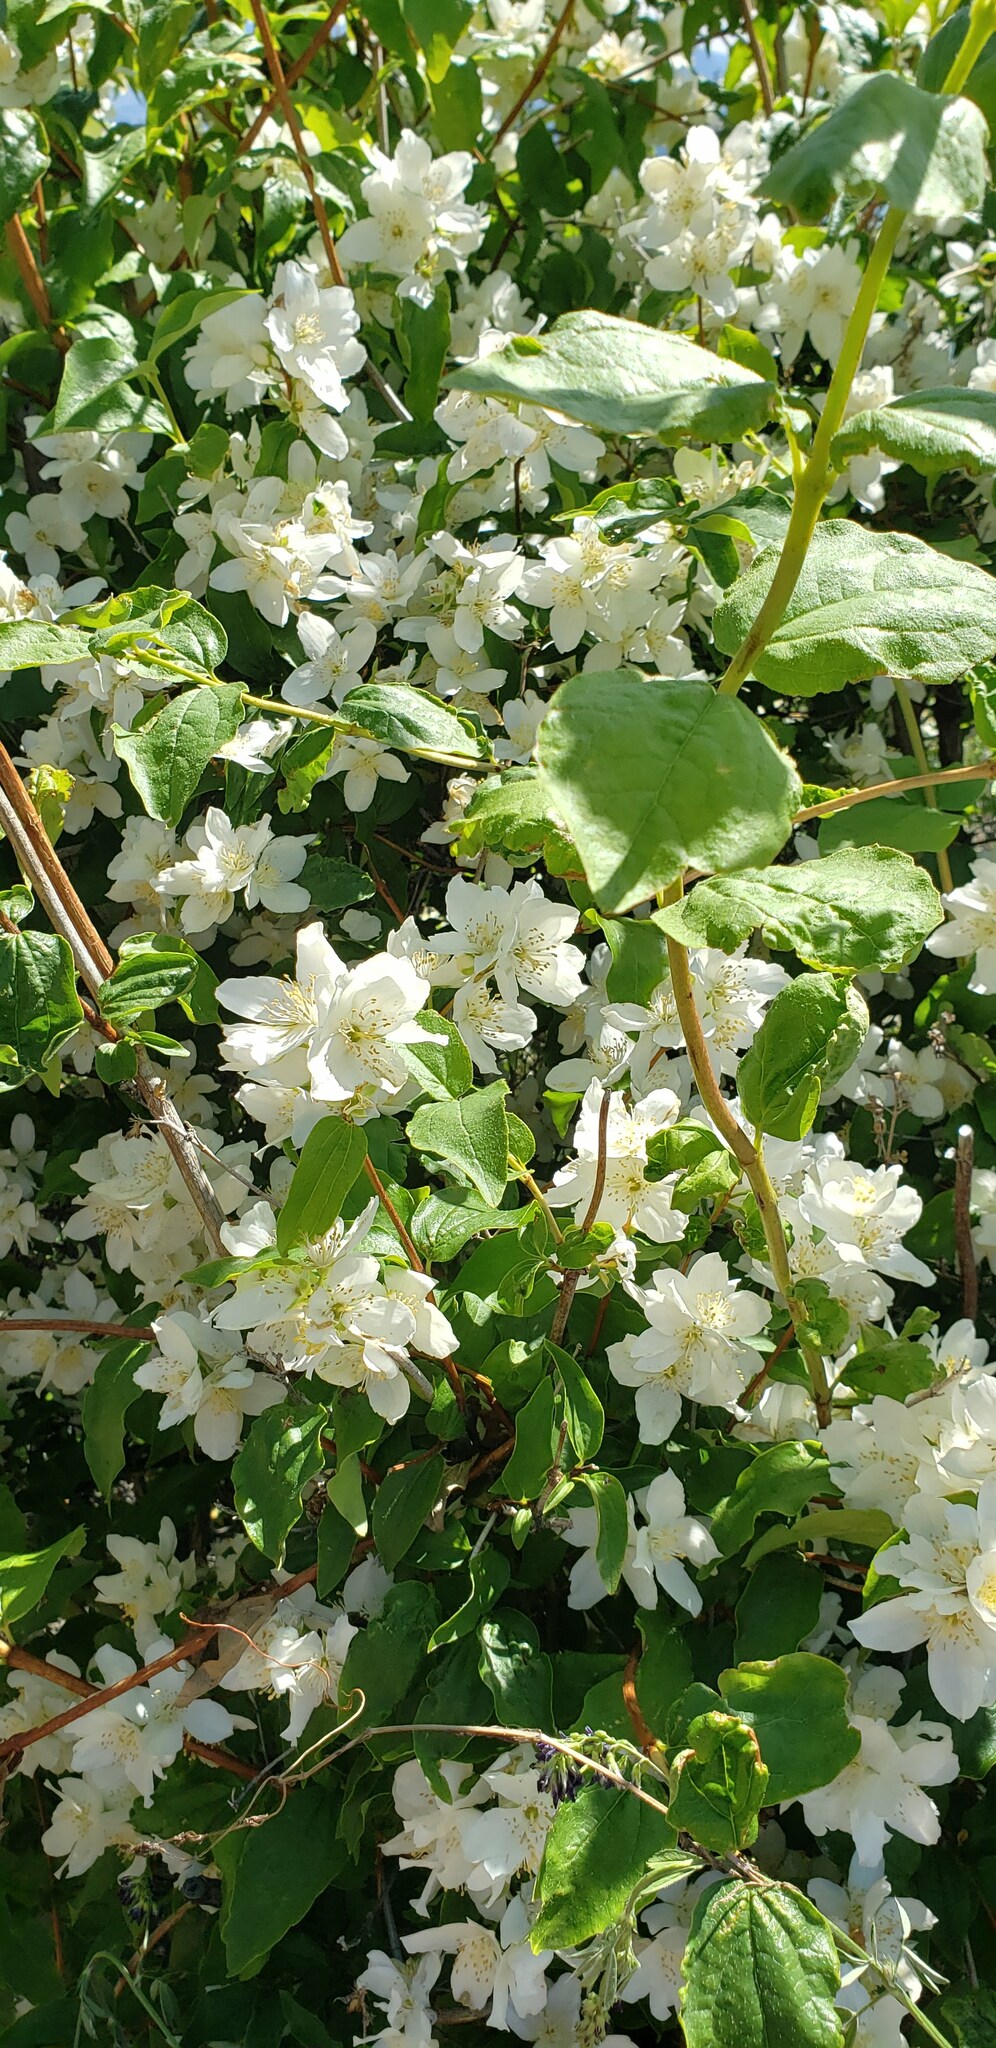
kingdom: Plantae
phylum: Tracheophyta
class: Magnoliopsida
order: Cornales
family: Hydrangeaceae
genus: Philadelphus
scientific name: Philadelphus lewisii
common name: Lewis's mock orange
